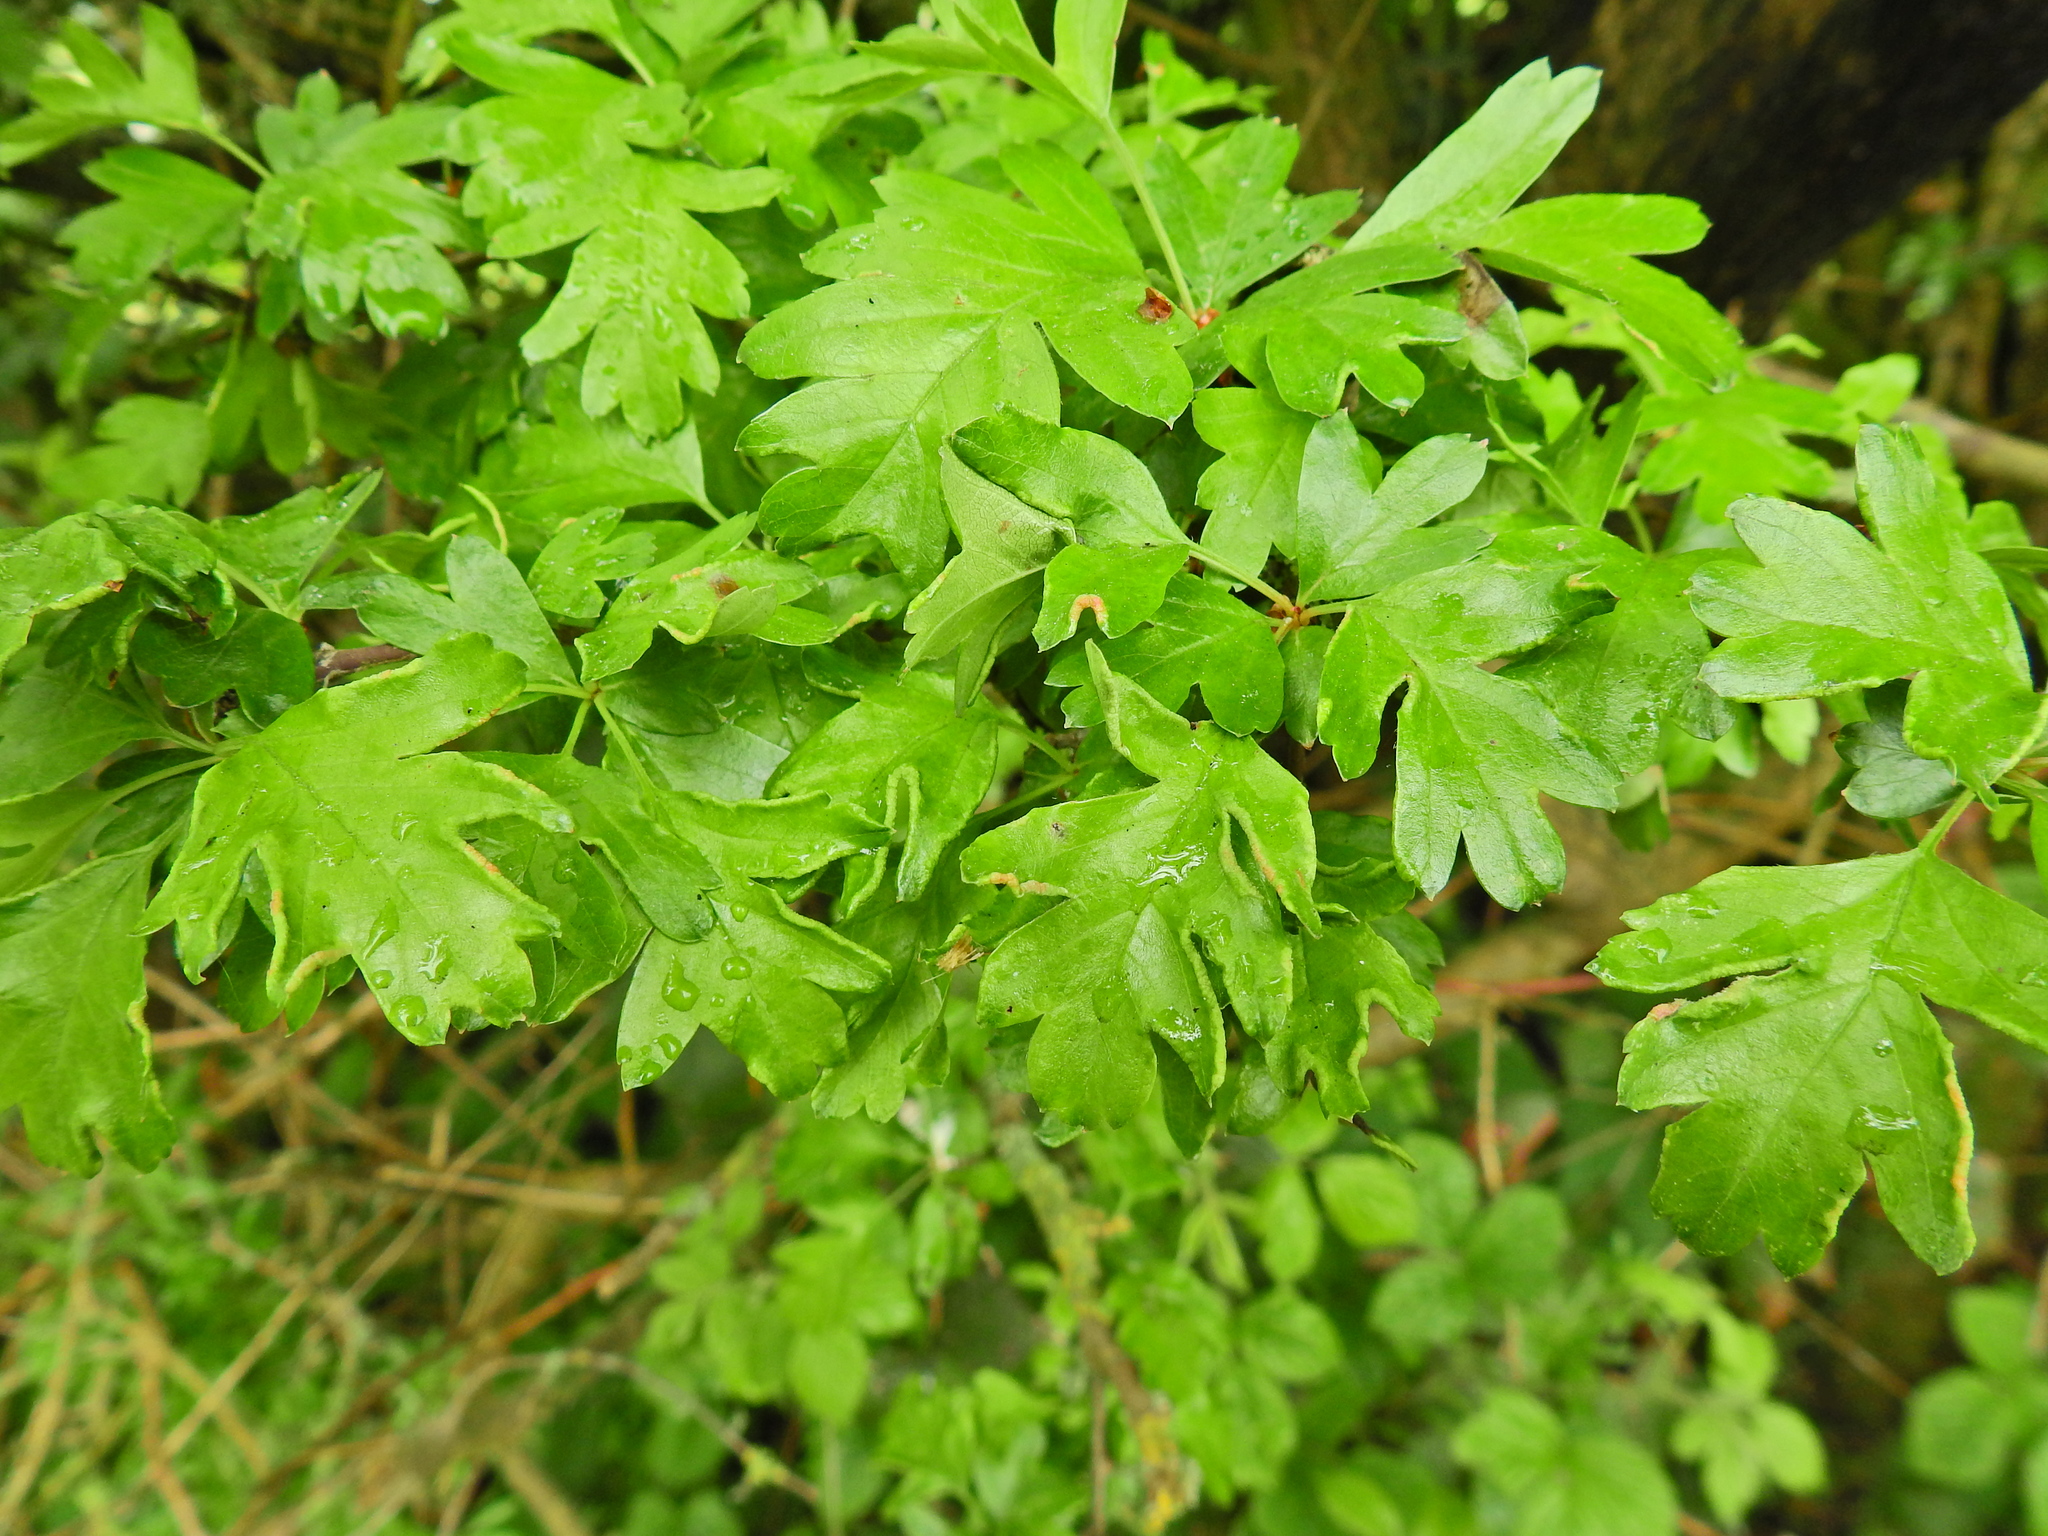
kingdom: Plantae
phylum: Tracheophyta
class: Magnoliopsida
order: Rosales
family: Rosaceae
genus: Crataegus
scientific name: Crataegus monogyna
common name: Hawthorn
